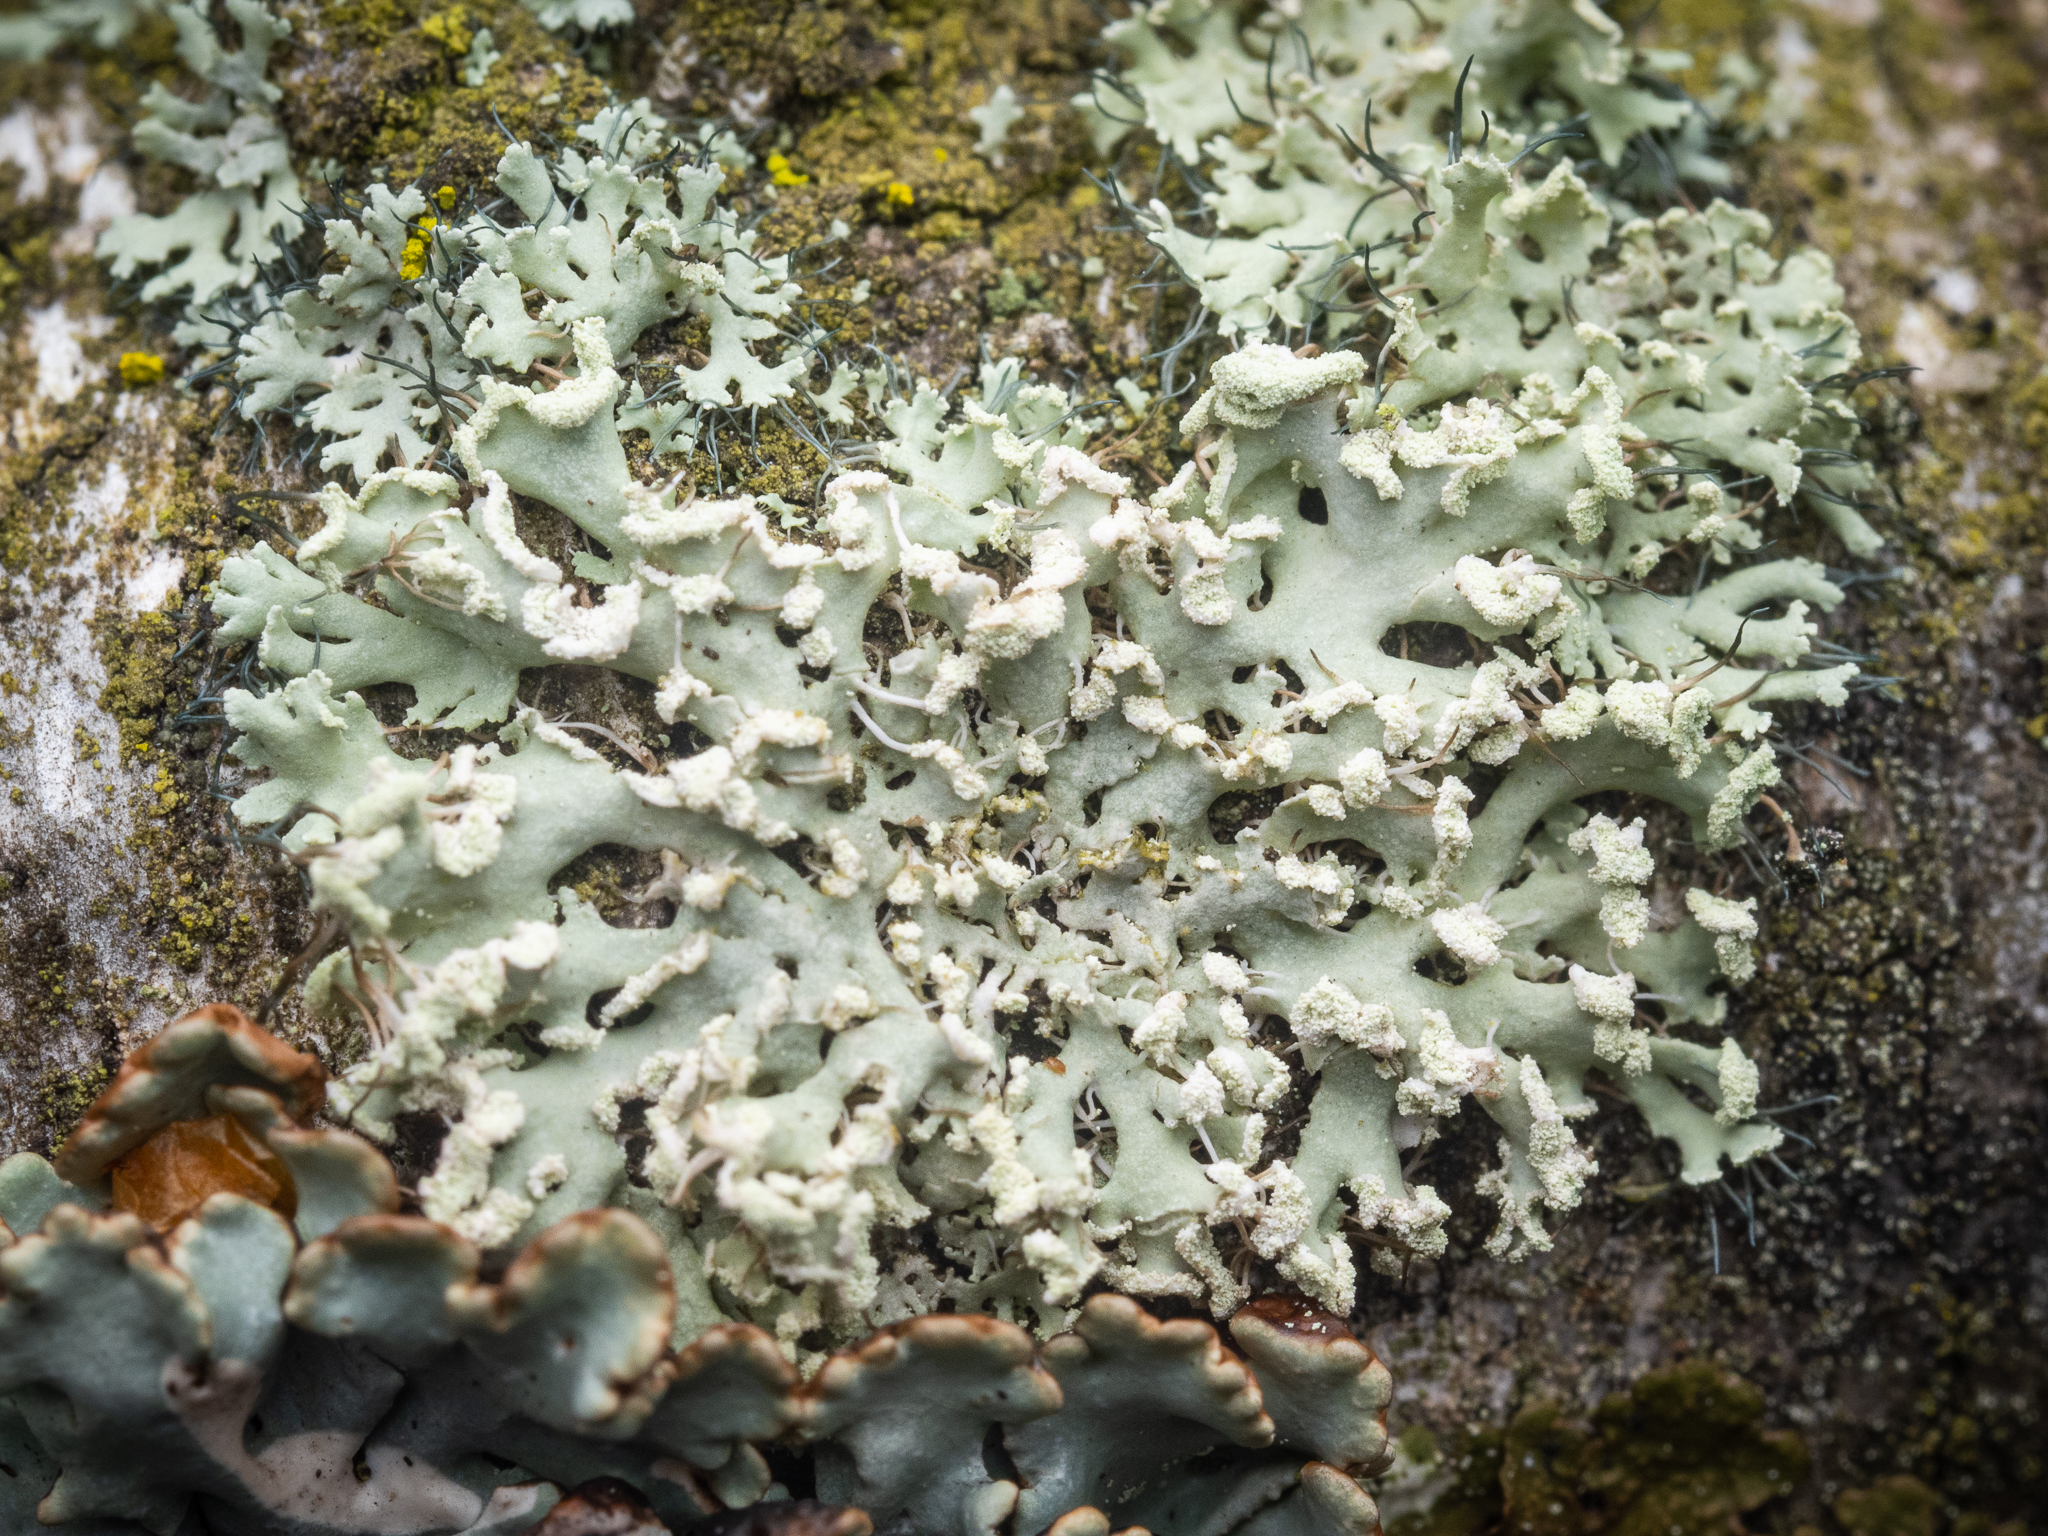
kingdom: Fungi
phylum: Ascomycota
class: Lecanoromycetes
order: Caliciales
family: Physciaceae
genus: Physcia
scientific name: Physcia tenella
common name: Fringed rosette lichen
